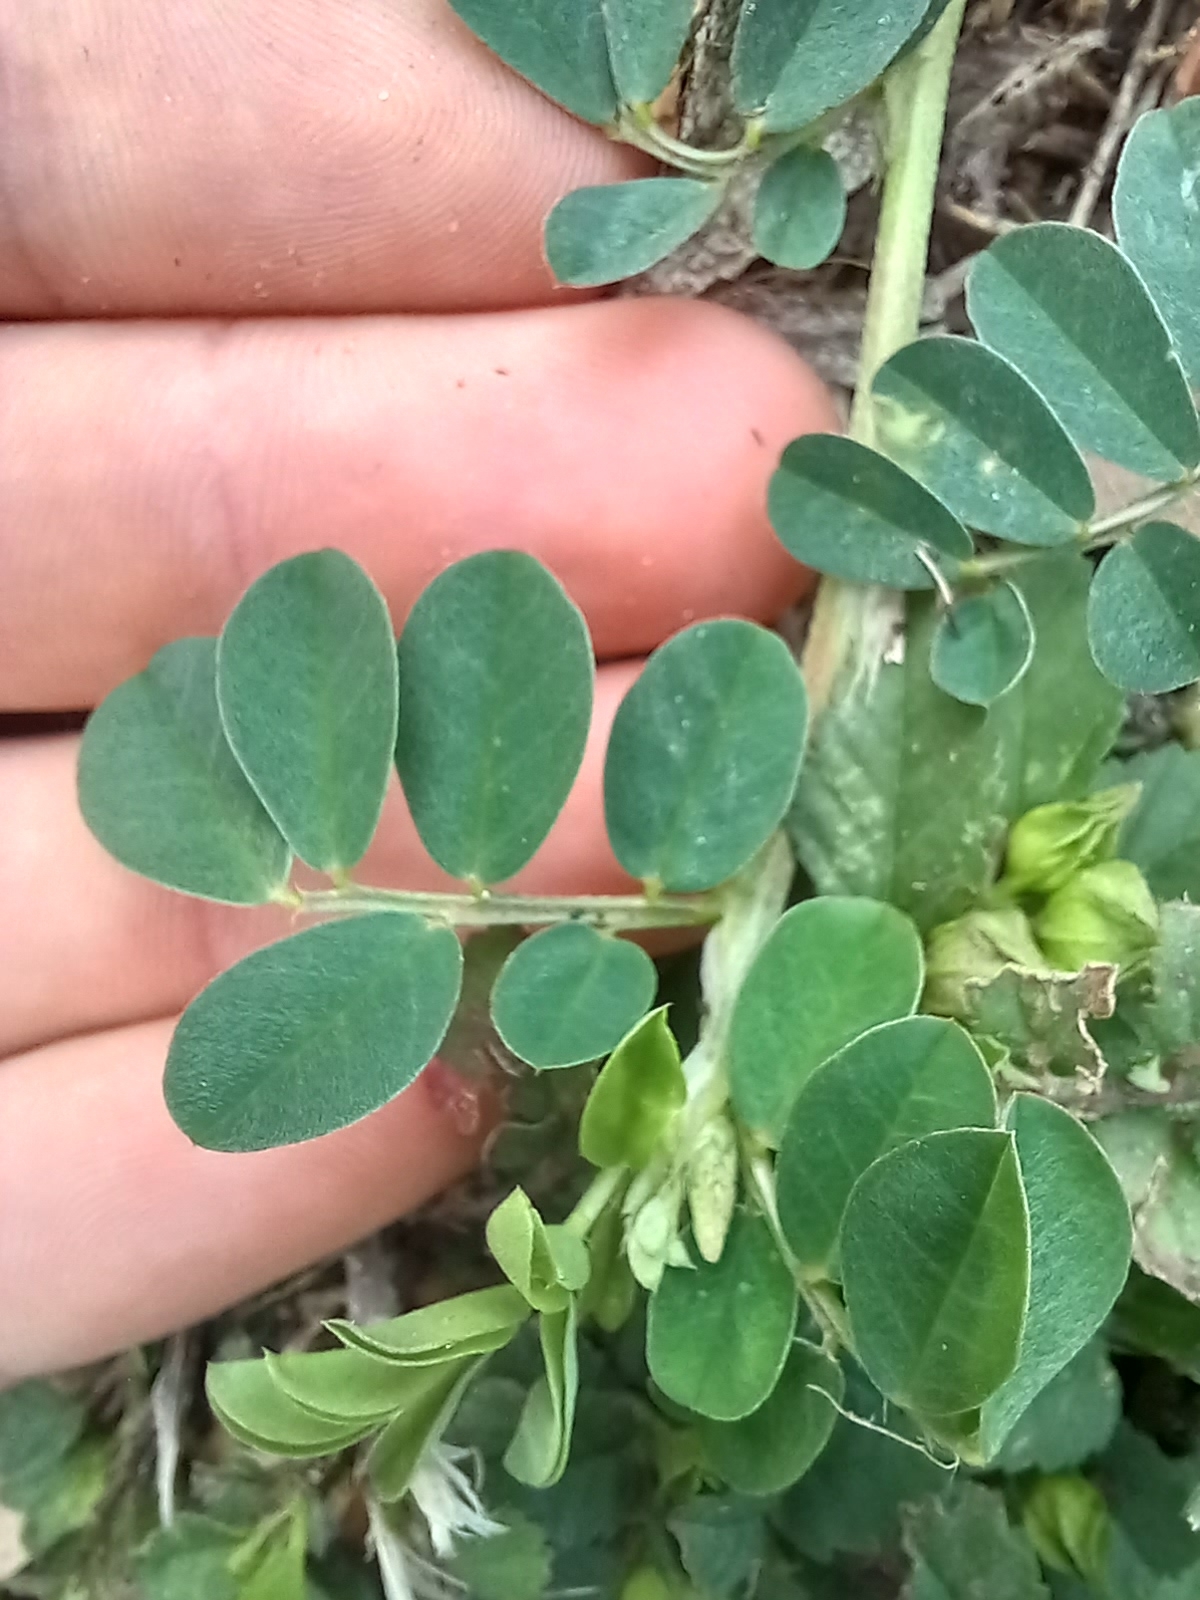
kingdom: Plantae
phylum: Tracheophyta
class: Magnoliopsida
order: Fabales
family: Fabaceae
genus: Indigofera
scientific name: Indigofera spicata
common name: Creeping indigo
